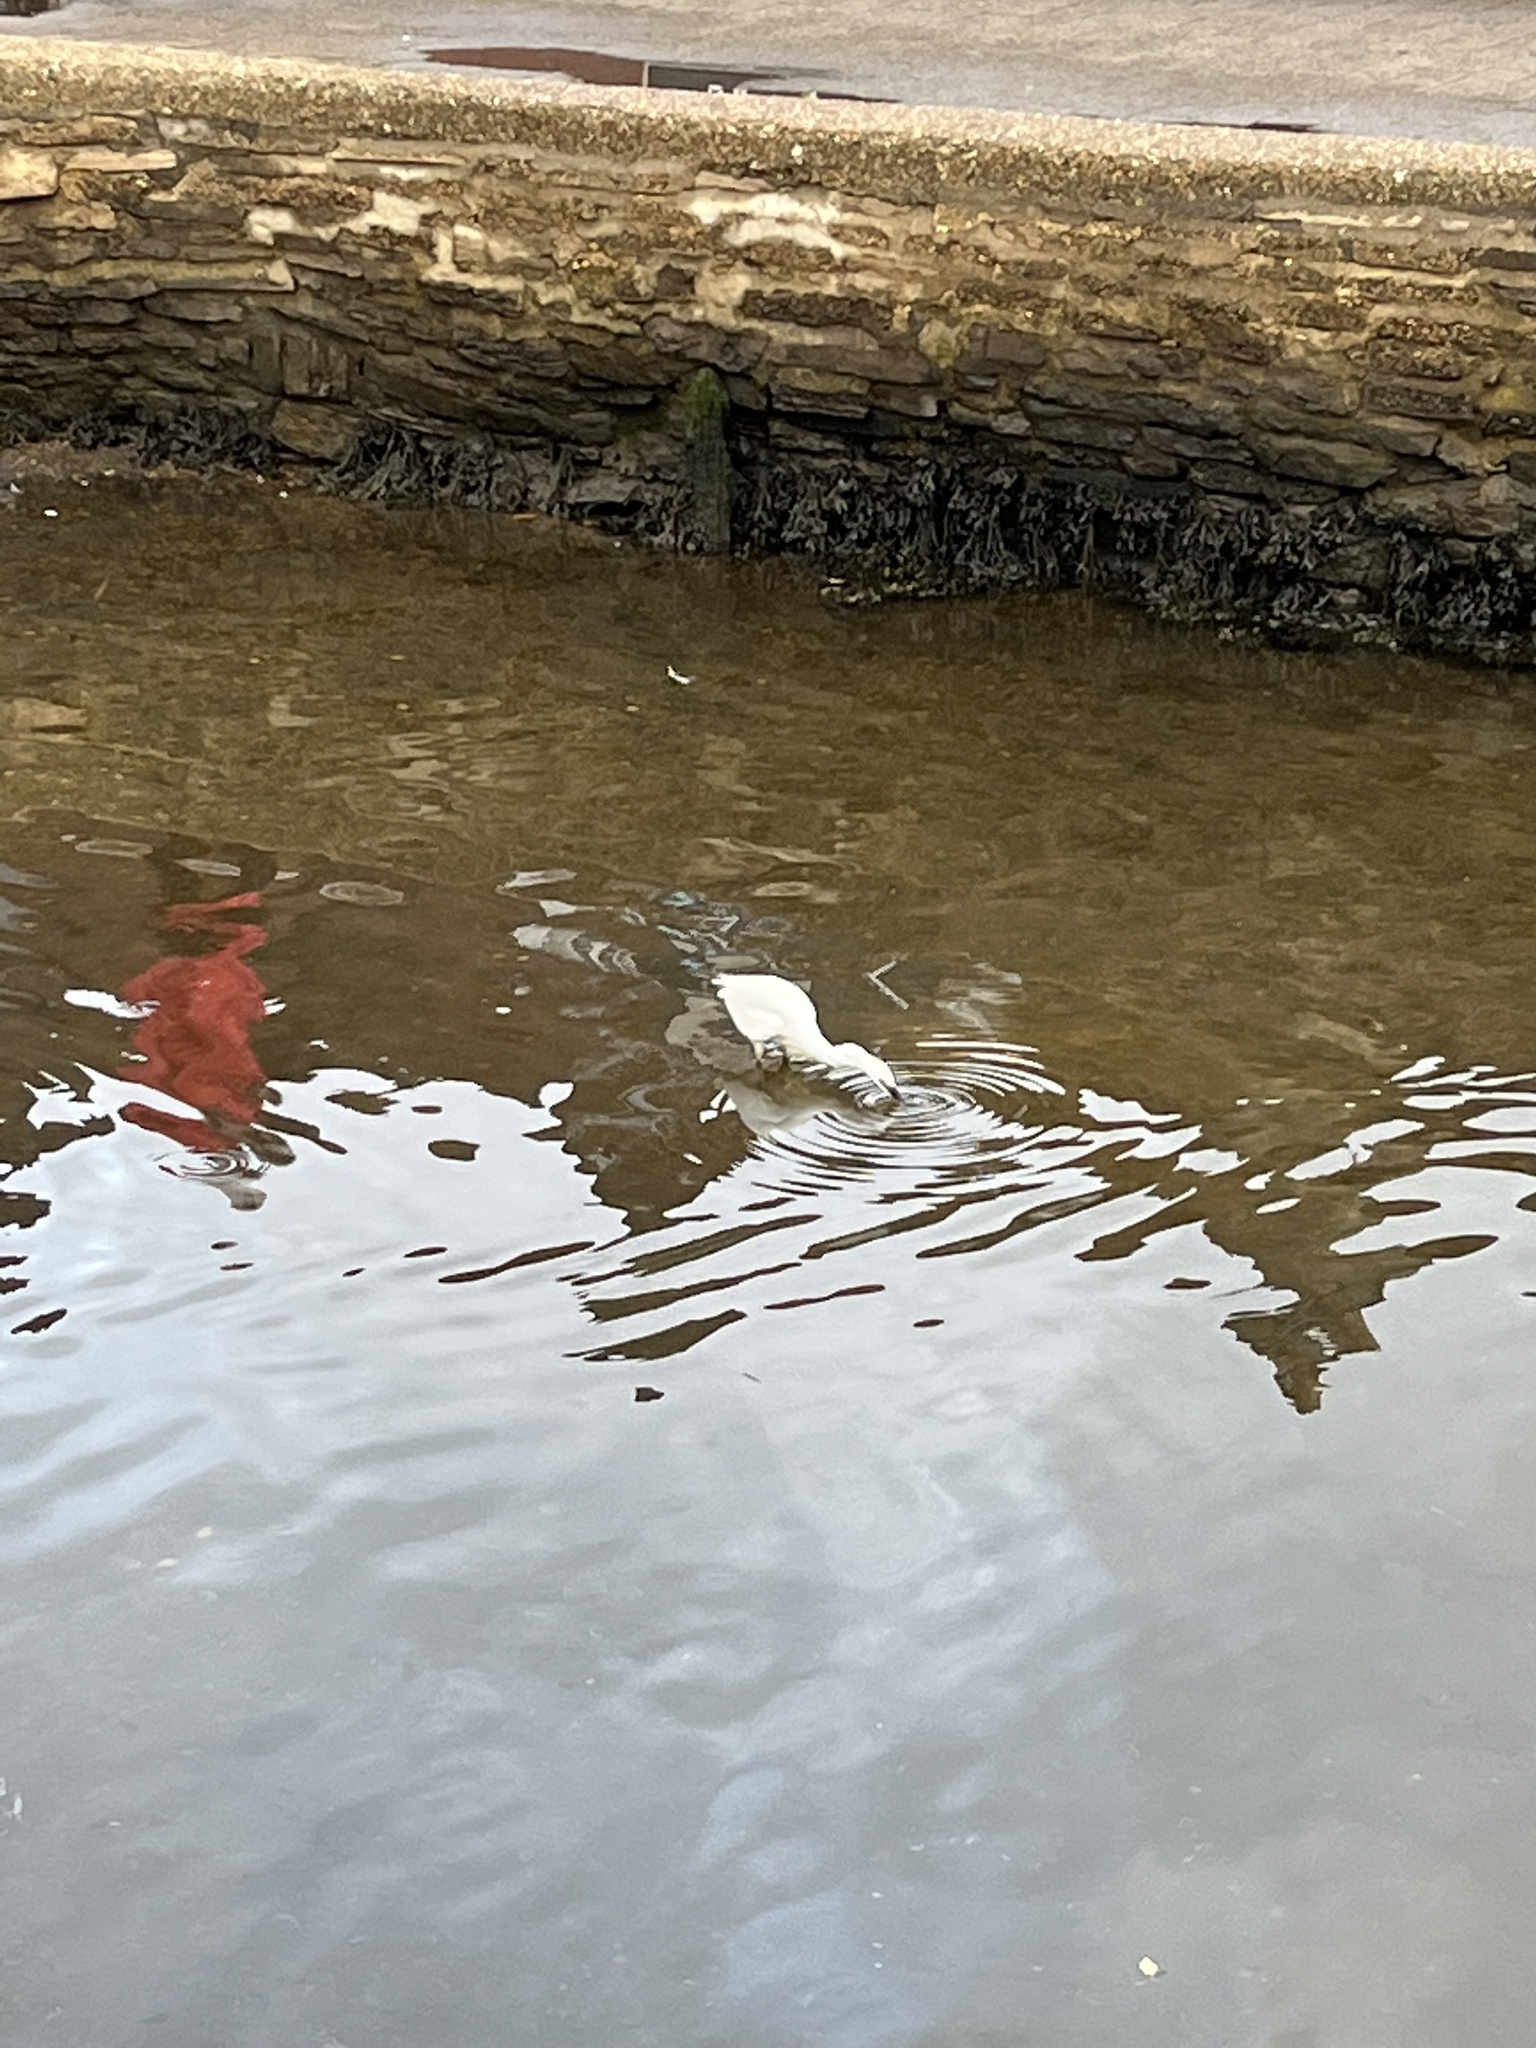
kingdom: Animalia
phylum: Chordata
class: Aves
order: Pelecaniformes
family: Ardeidae
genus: Egretta
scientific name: Egretta garzetta
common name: Little egret
